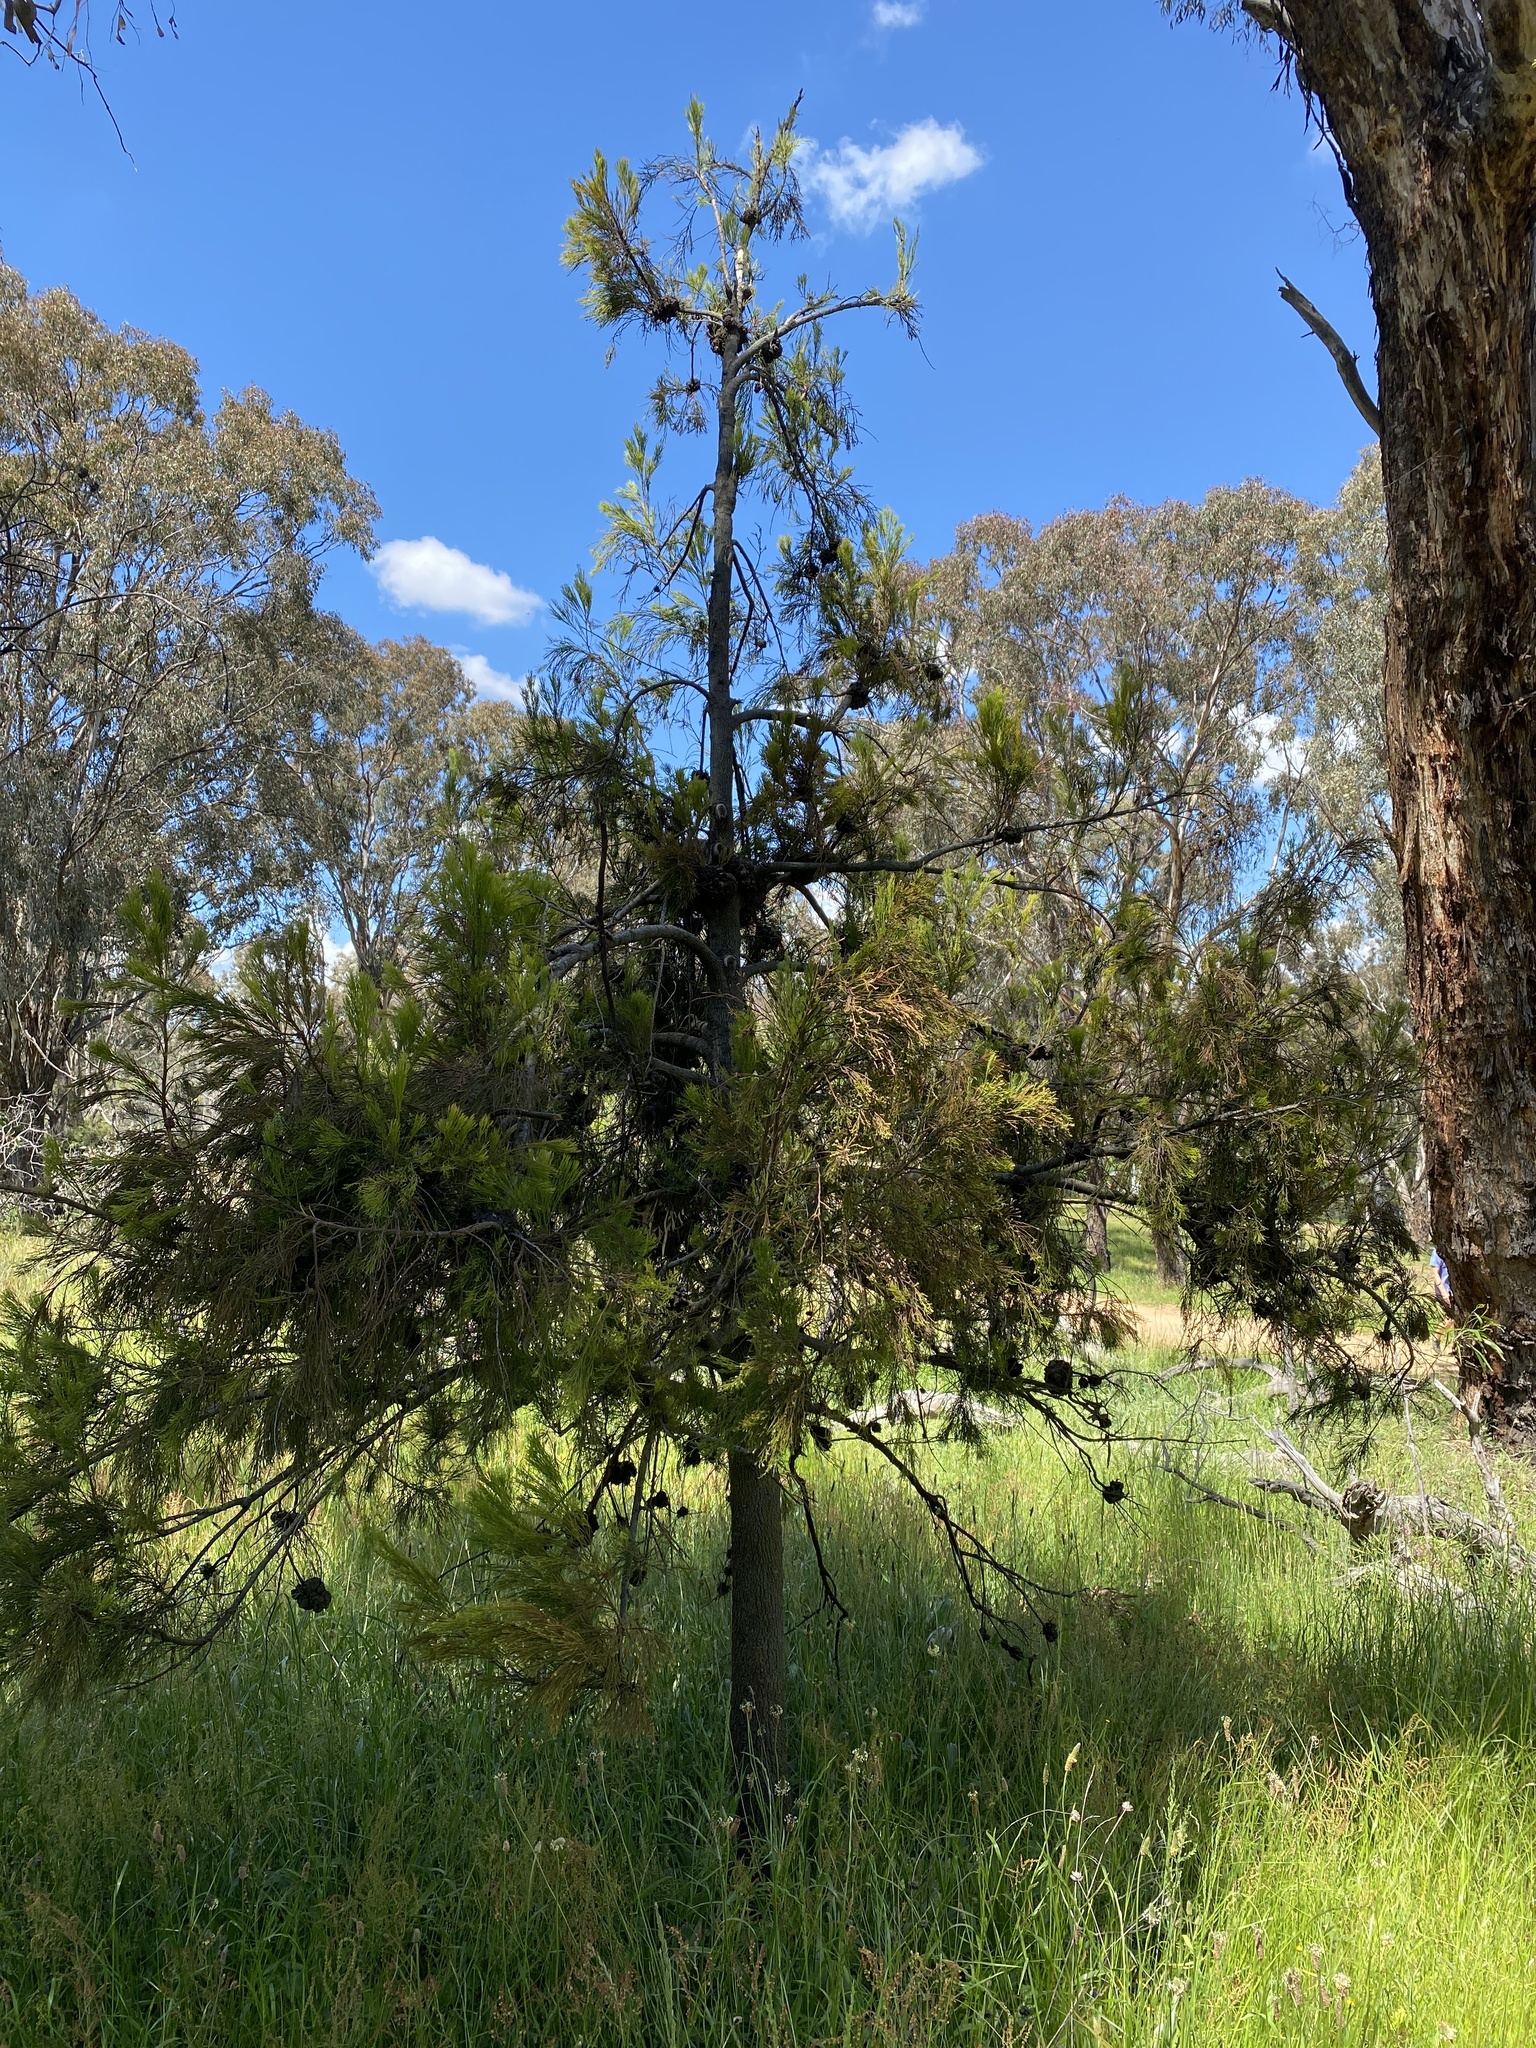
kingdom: Plantae
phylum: Tracheophyta
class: Magnoliopsida
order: Santalales
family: Santalaceae
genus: Exocarpos
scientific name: Exocarpos cupressiformis
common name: Cherry ballart
